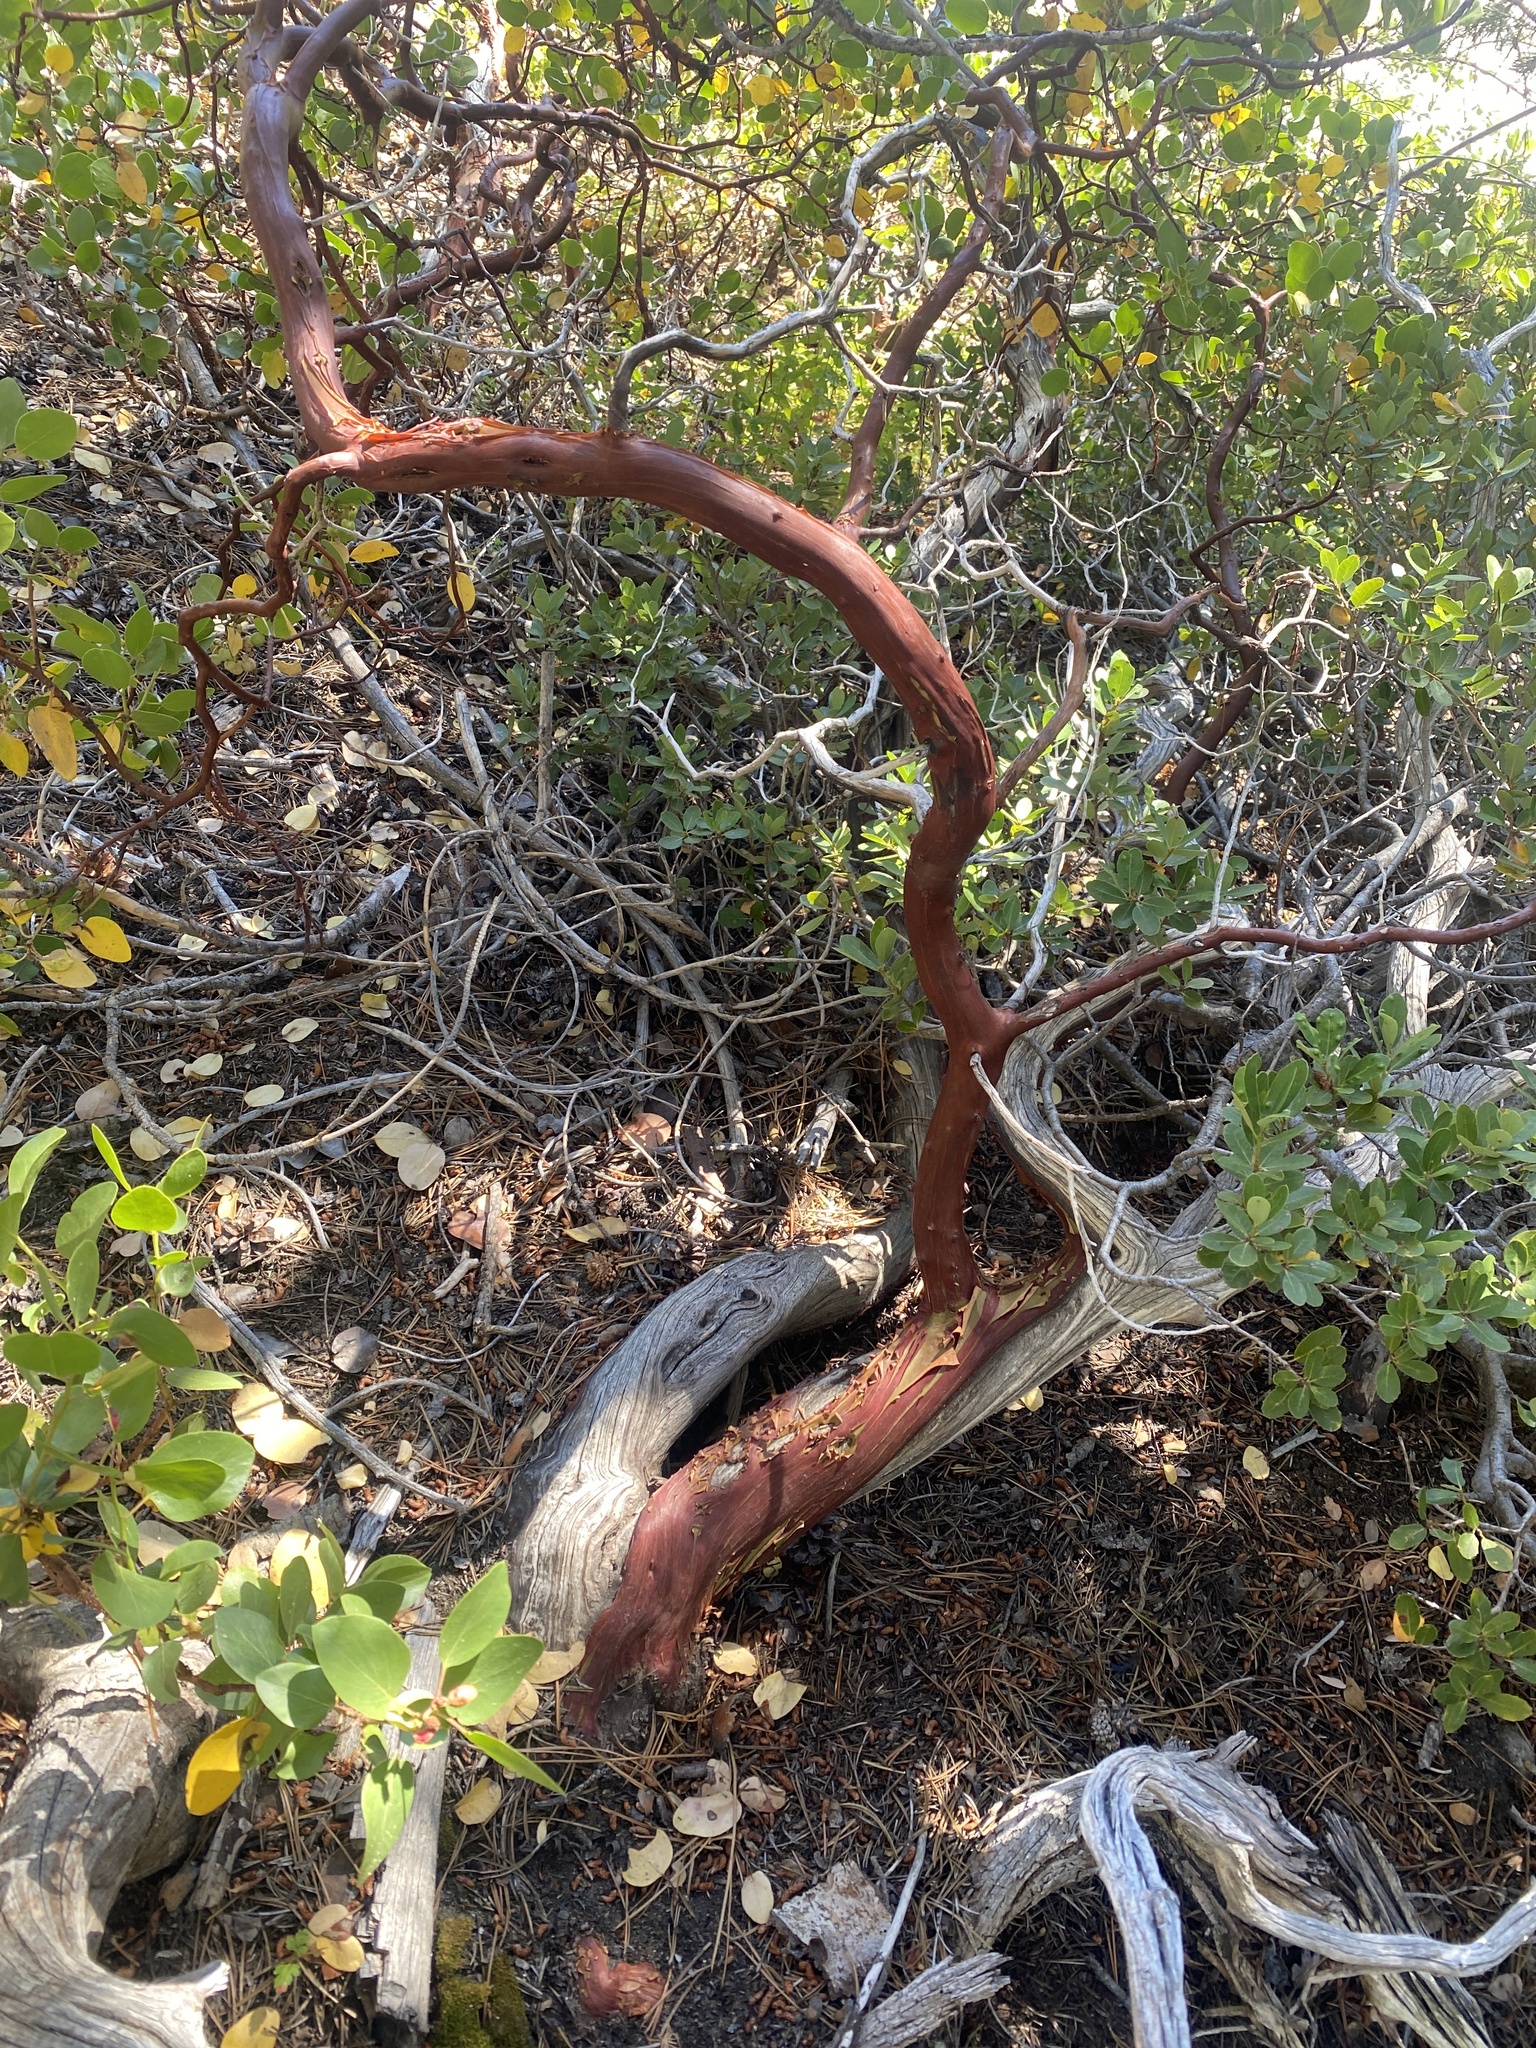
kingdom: Plantae
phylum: Tracheophyta
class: Magnoliopsida
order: Ericales
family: Ericaceae
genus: Arctostaphylos
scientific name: Arctostaphylos patula
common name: Green-leaf manzanita
